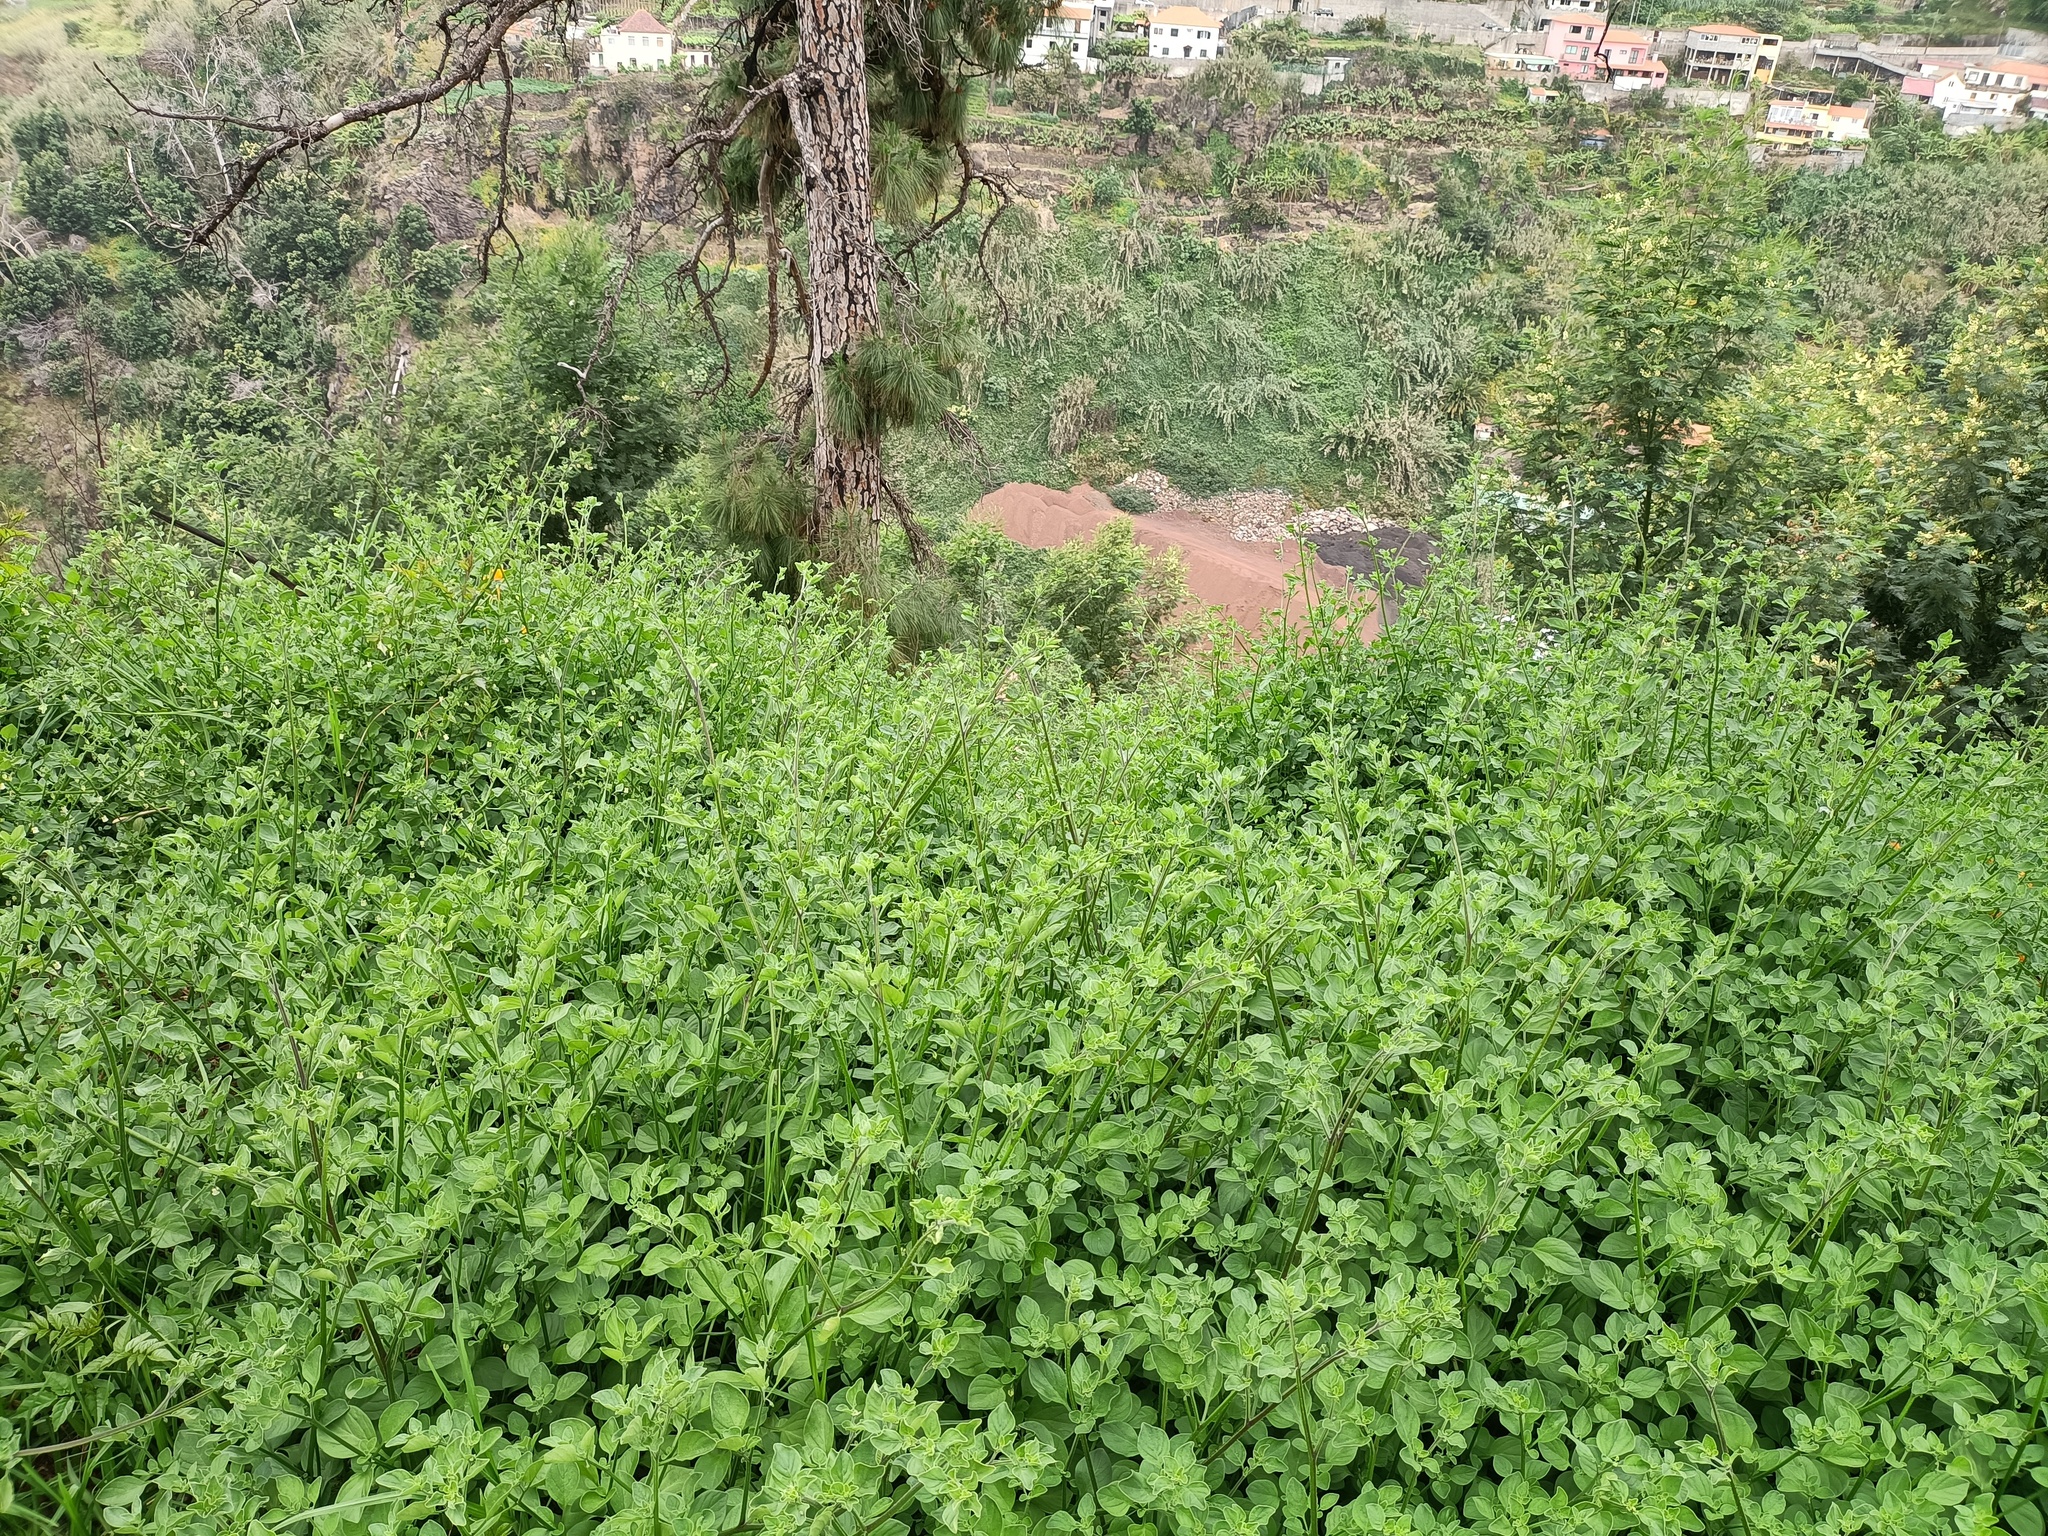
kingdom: Plantae
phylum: Tracheophyta
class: Magnoliopsida
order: Solanales
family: Solanaceae
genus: Salpichroa
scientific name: Salpichroa origanifolia
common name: Lily-of-the-valley-vine
